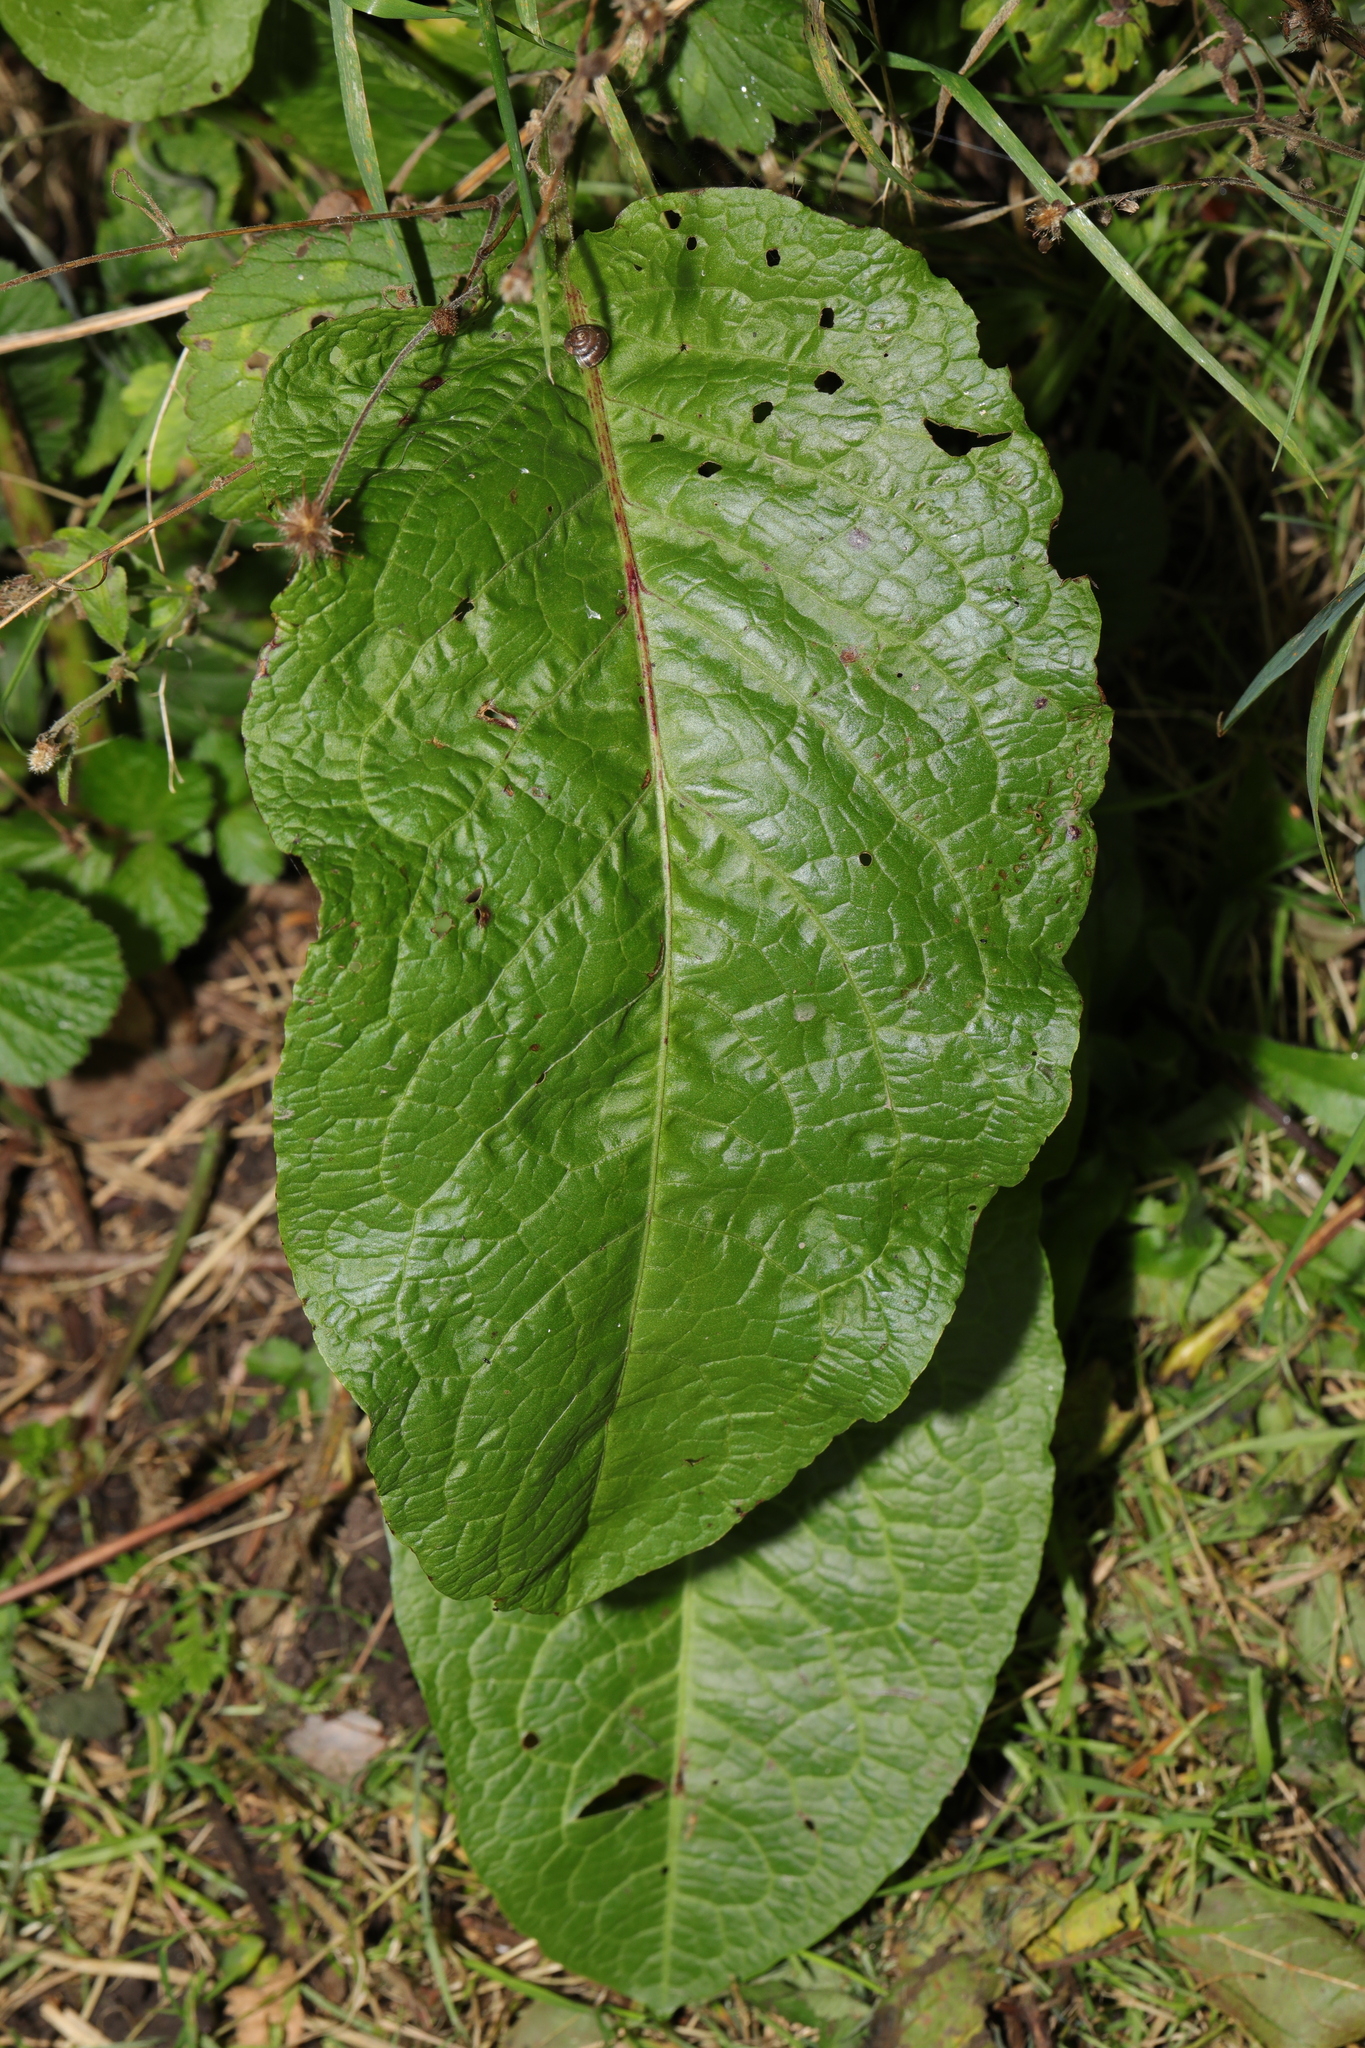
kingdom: Plantae
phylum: Tracheophyta
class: Magnoliopsida
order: Caryophyllales
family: Polygonaceae
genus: Rumex
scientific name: Rumex obtusifolius
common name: Bitter dock
